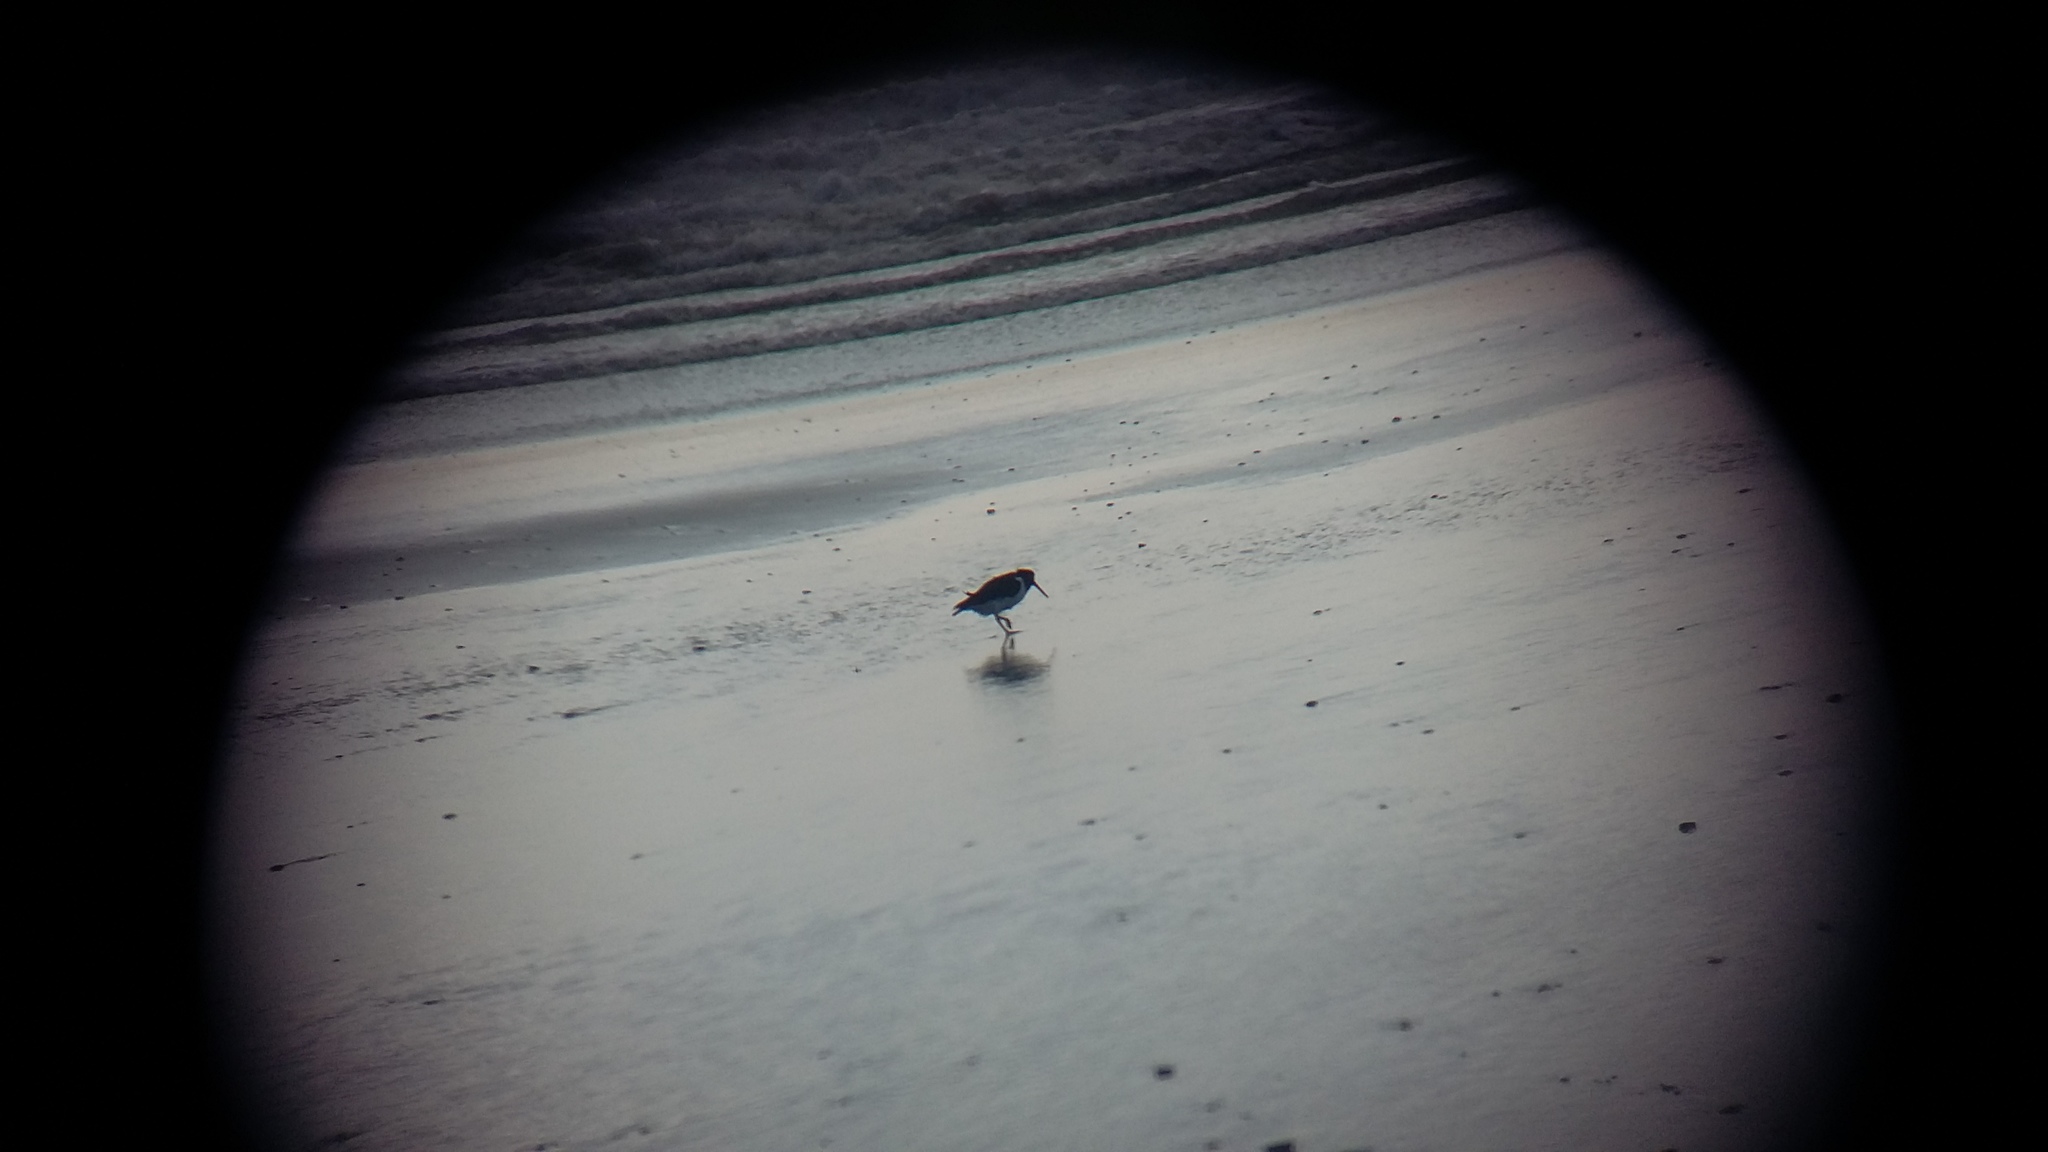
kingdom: Animalia
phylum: Chordata
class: Aves
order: Charadriiformes
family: Haematopodidae
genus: Haematopus
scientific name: Haematopus finschi
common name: South island oystercatcher
